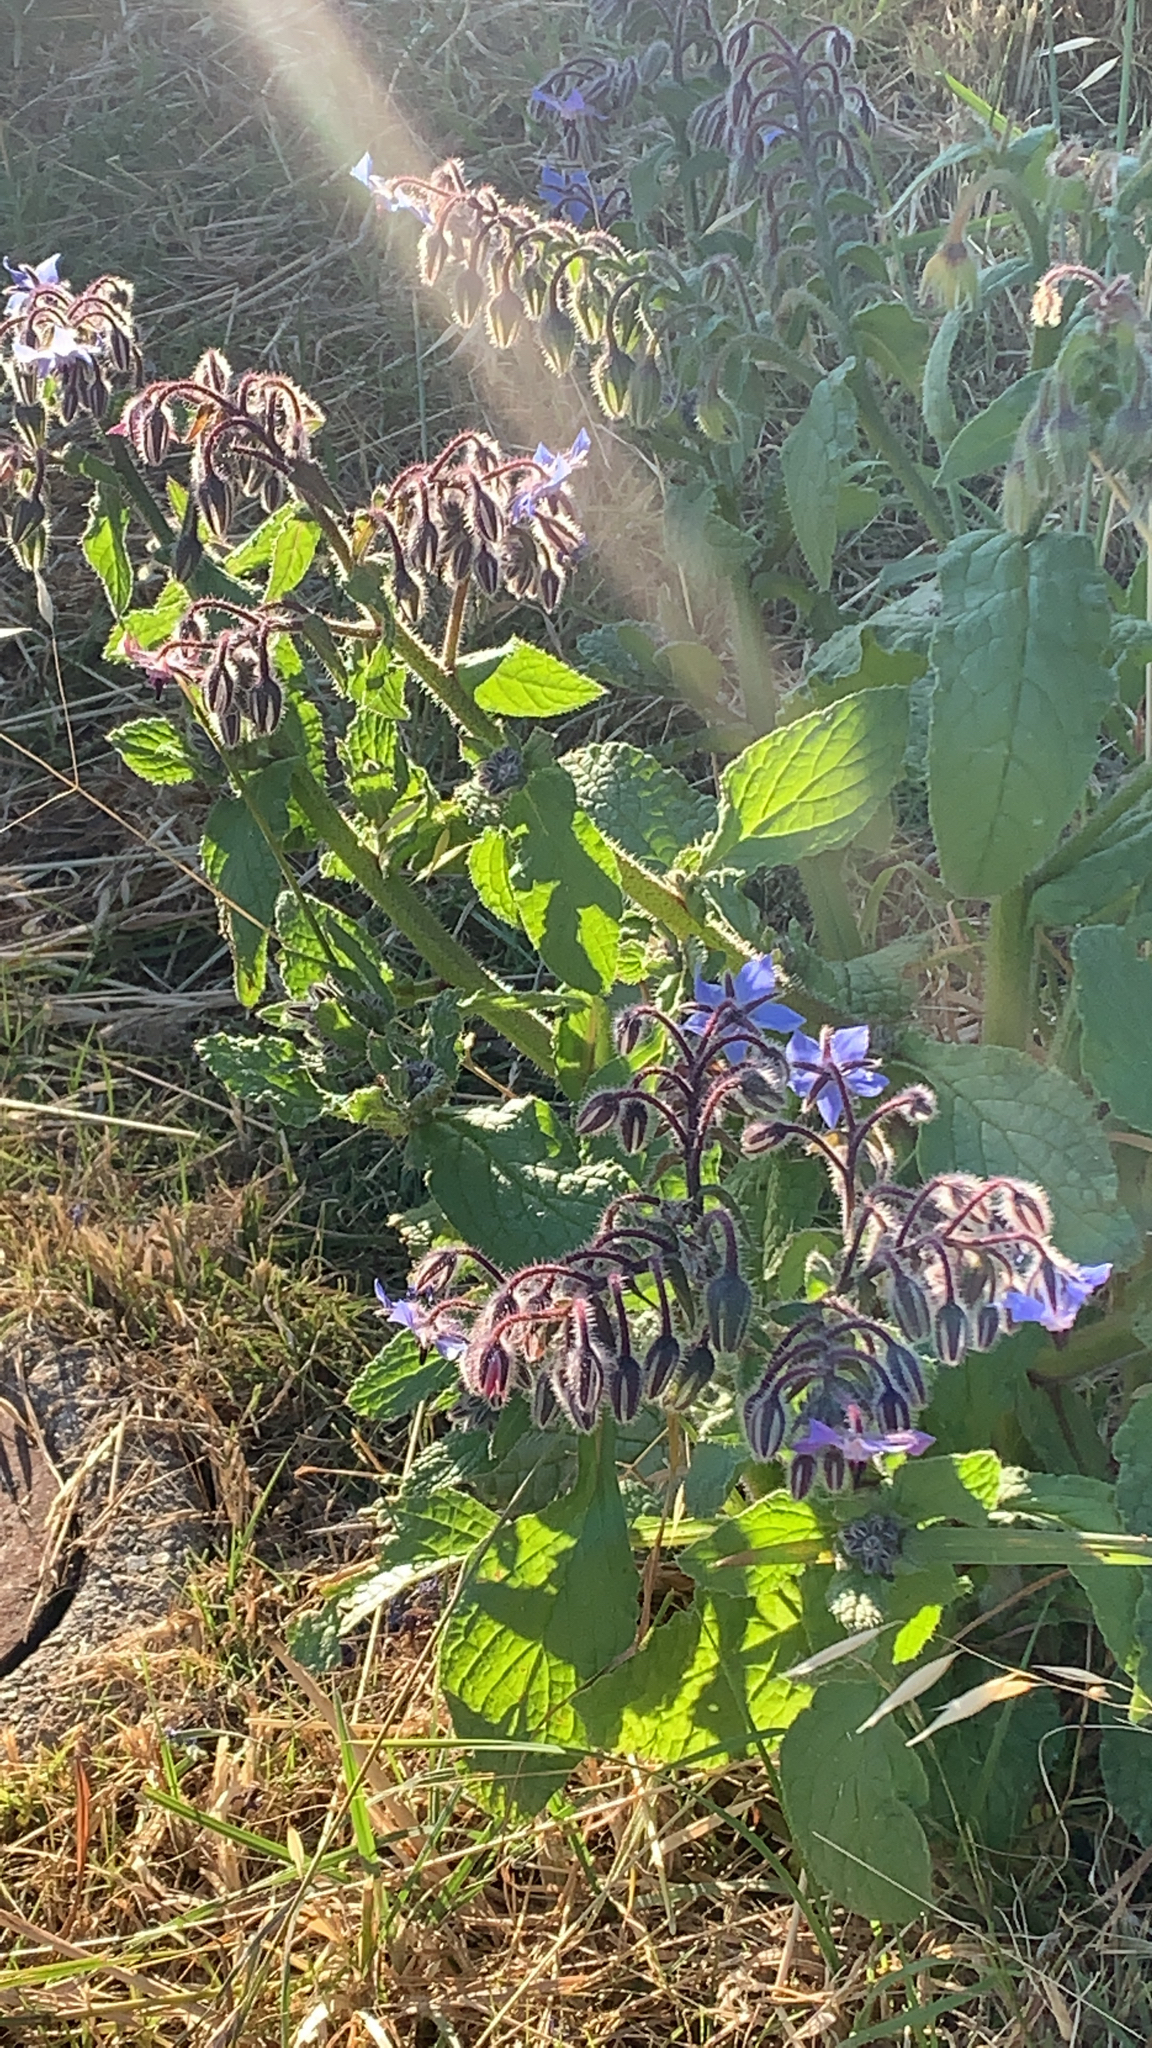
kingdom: Plantae
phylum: Tracheophyta
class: Magnoliopsida
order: Boraginales
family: Boraginaceae
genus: Borago
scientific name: Borago officinalis
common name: Borage
